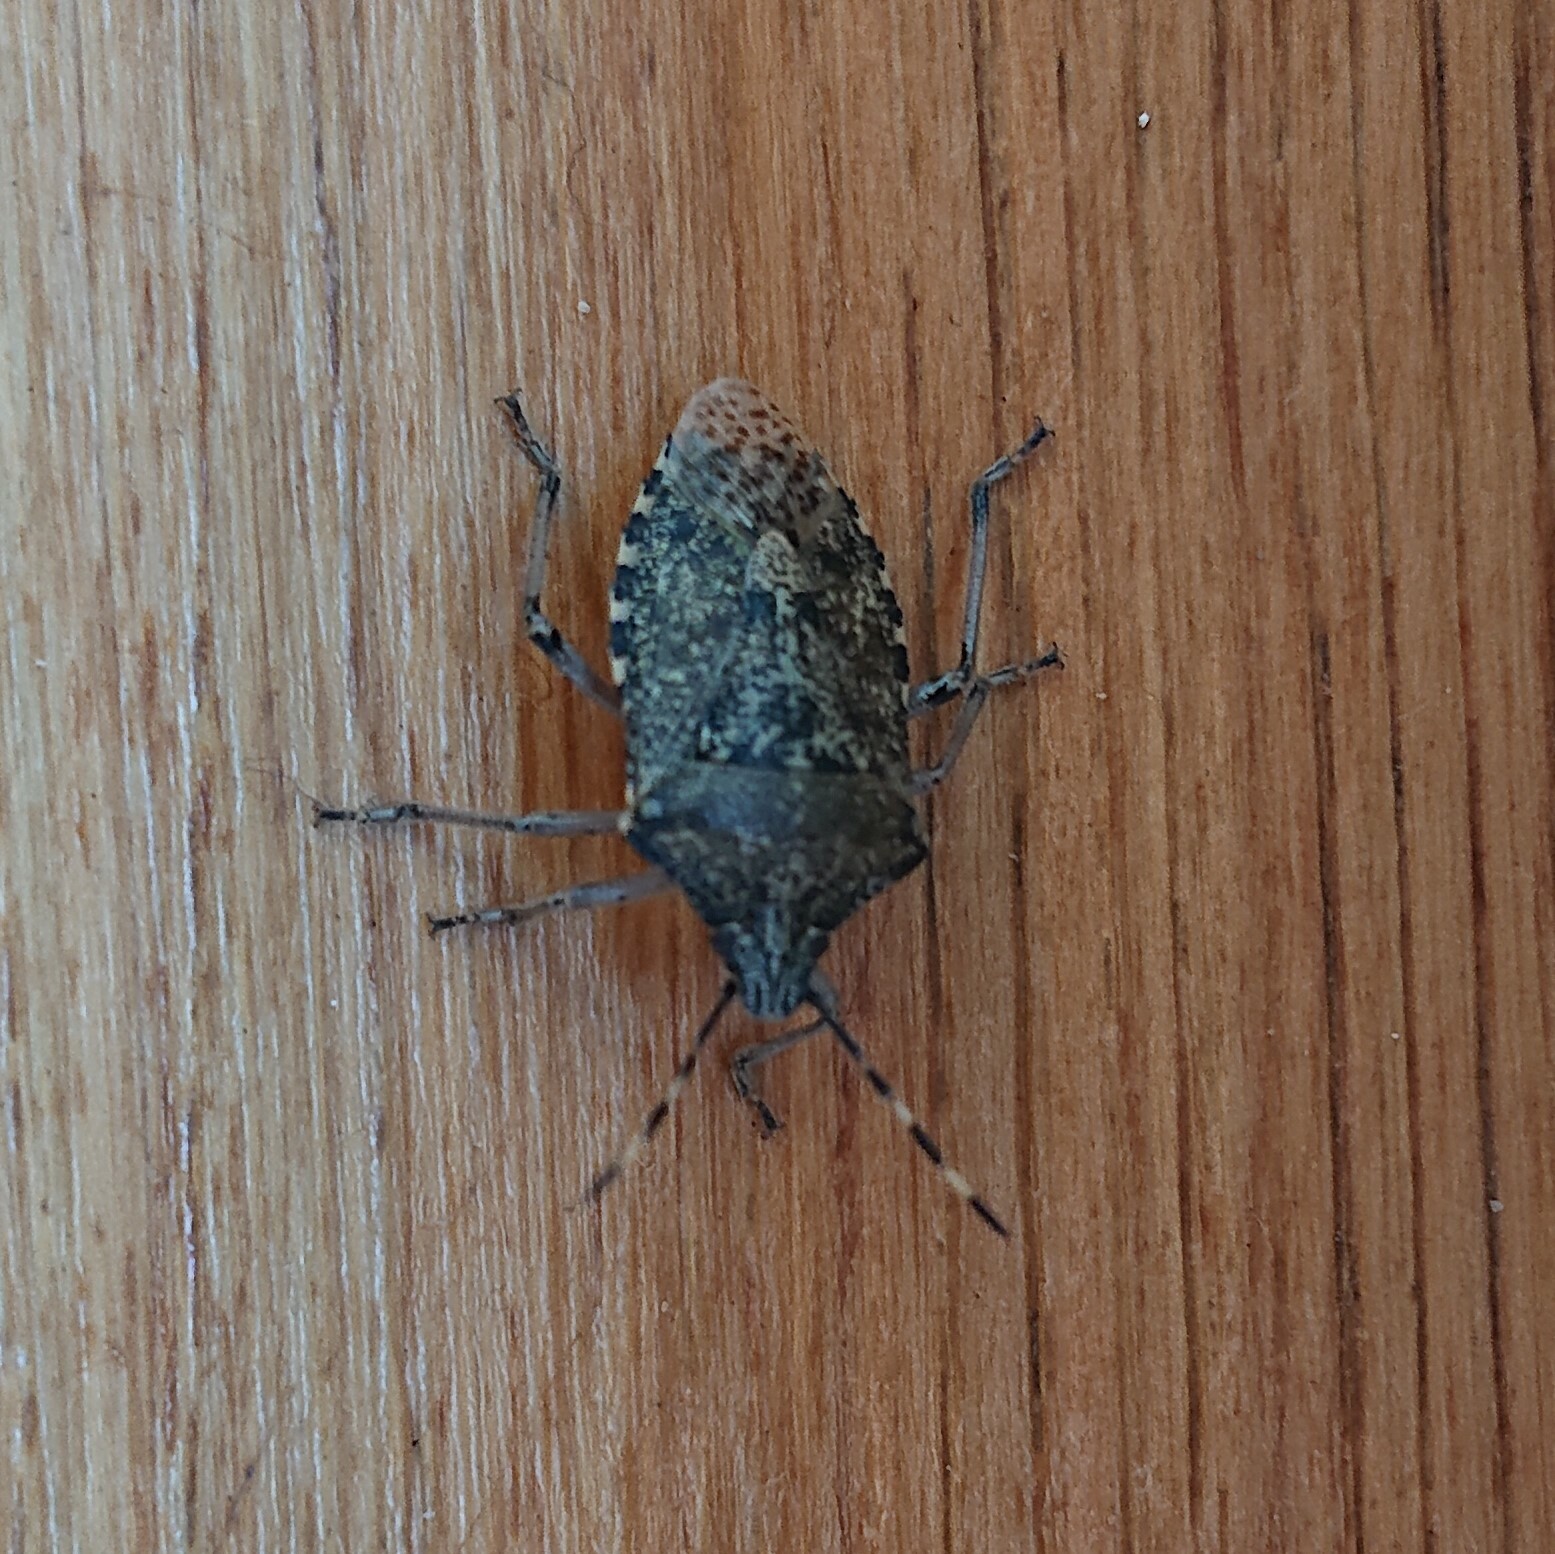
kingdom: Animalia
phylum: Arthropoda
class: Insecta
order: Hemiptera
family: Pentatomidae
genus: Rhaphigaster
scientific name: Rhaphigaster nebulosa
